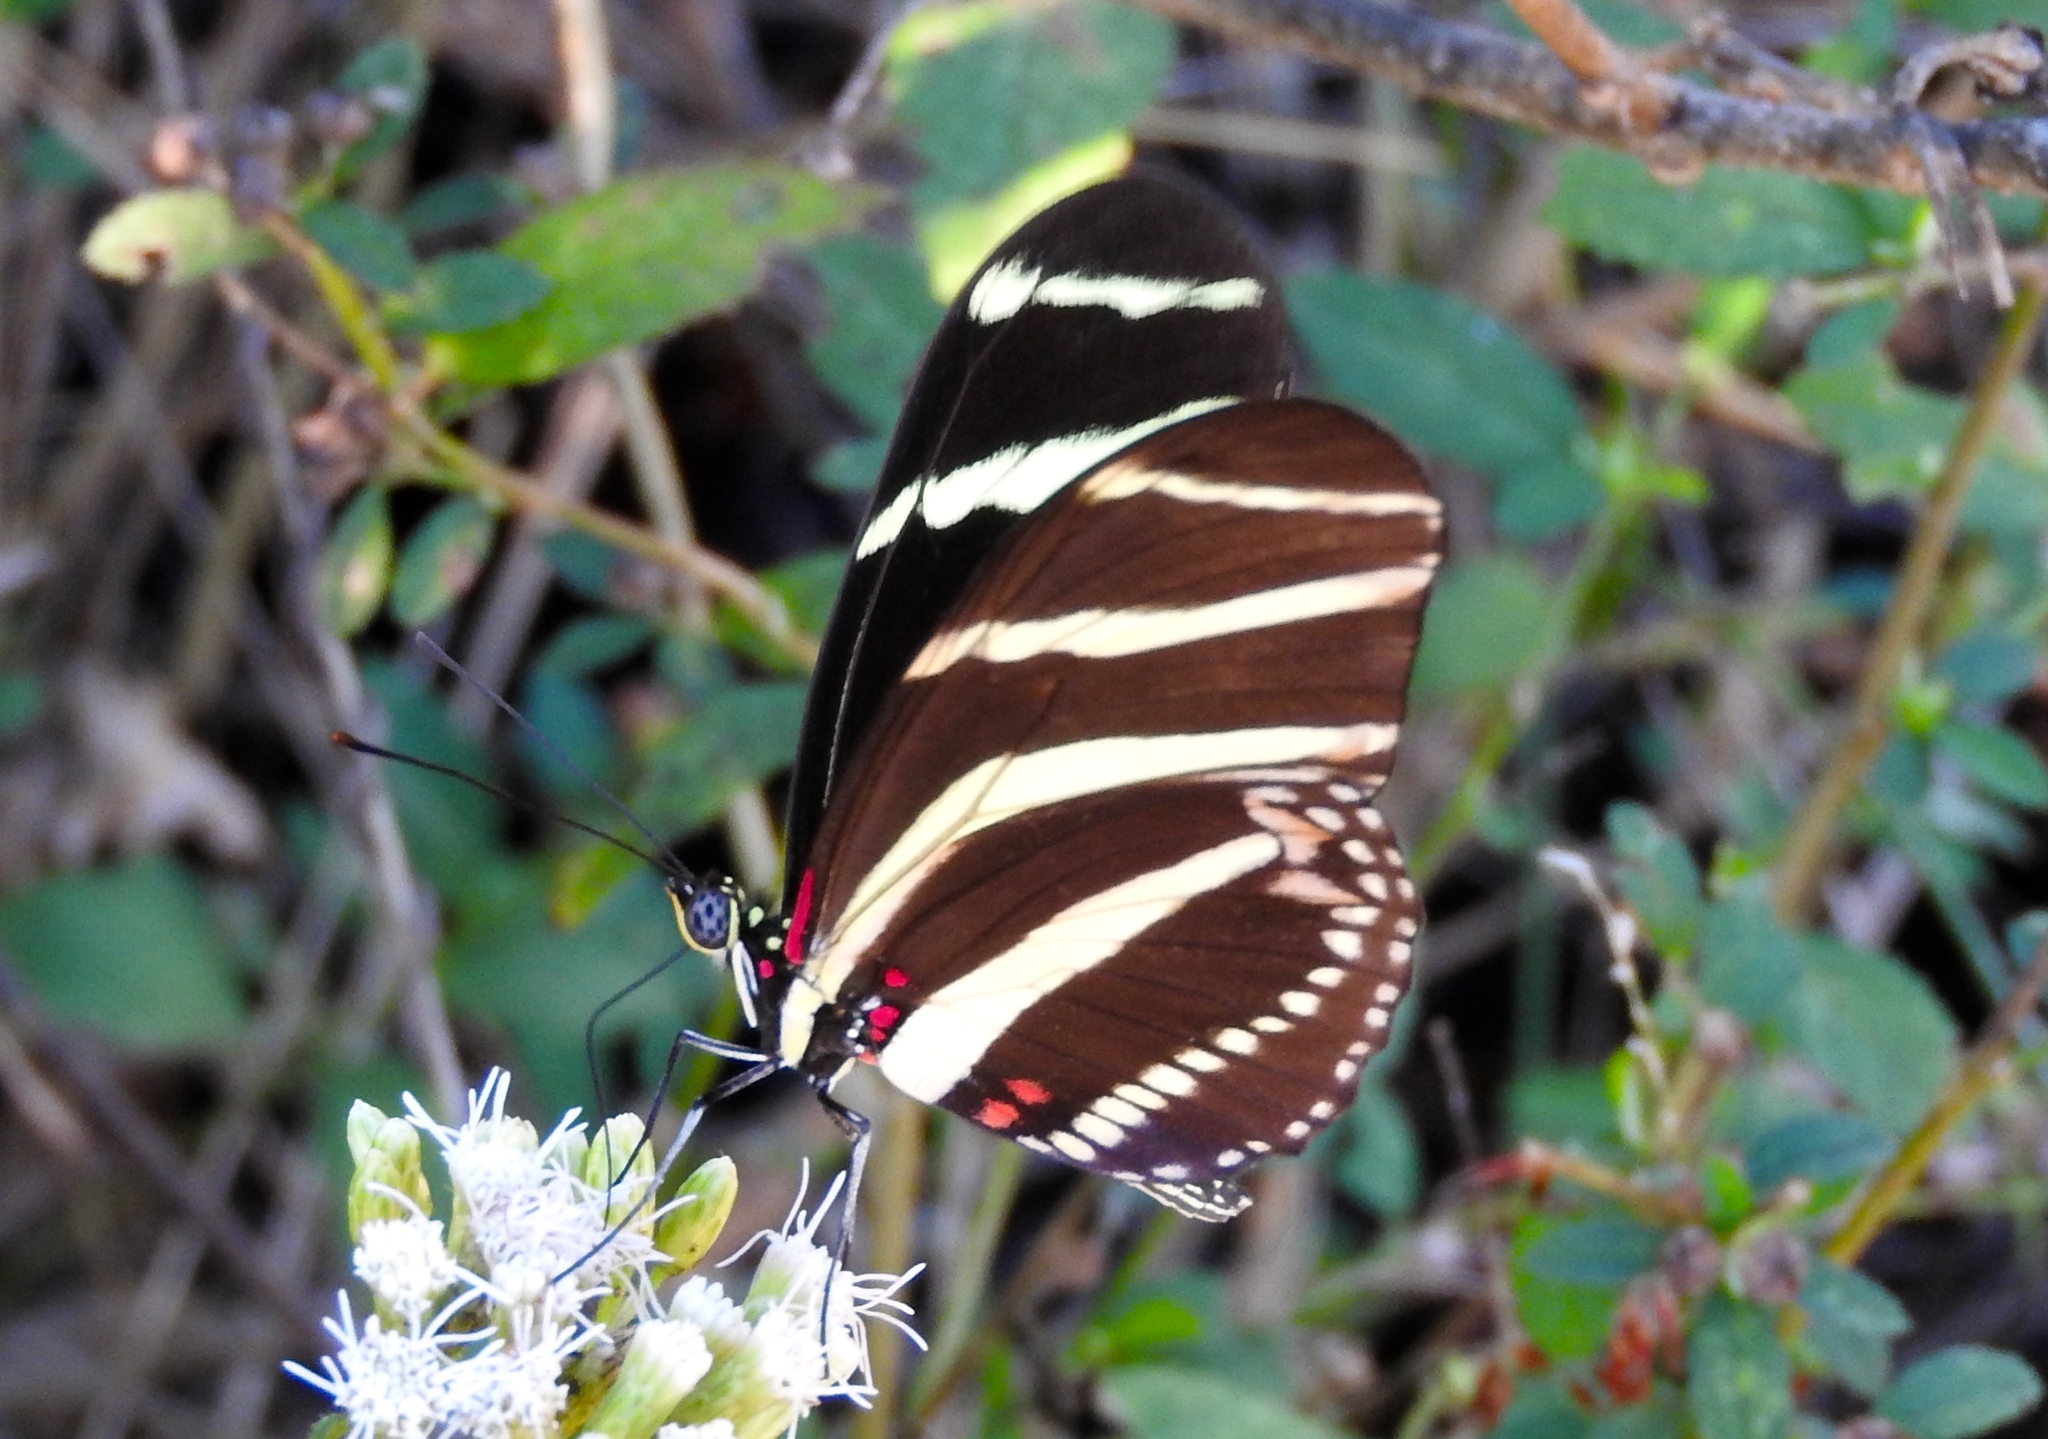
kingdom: Animalia
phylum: Arthropoda
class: Insecta
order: Lepidoptera
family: Nymphalidae
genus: Heliconius
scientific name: Heliconius charithonia
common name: Zebra long wing
